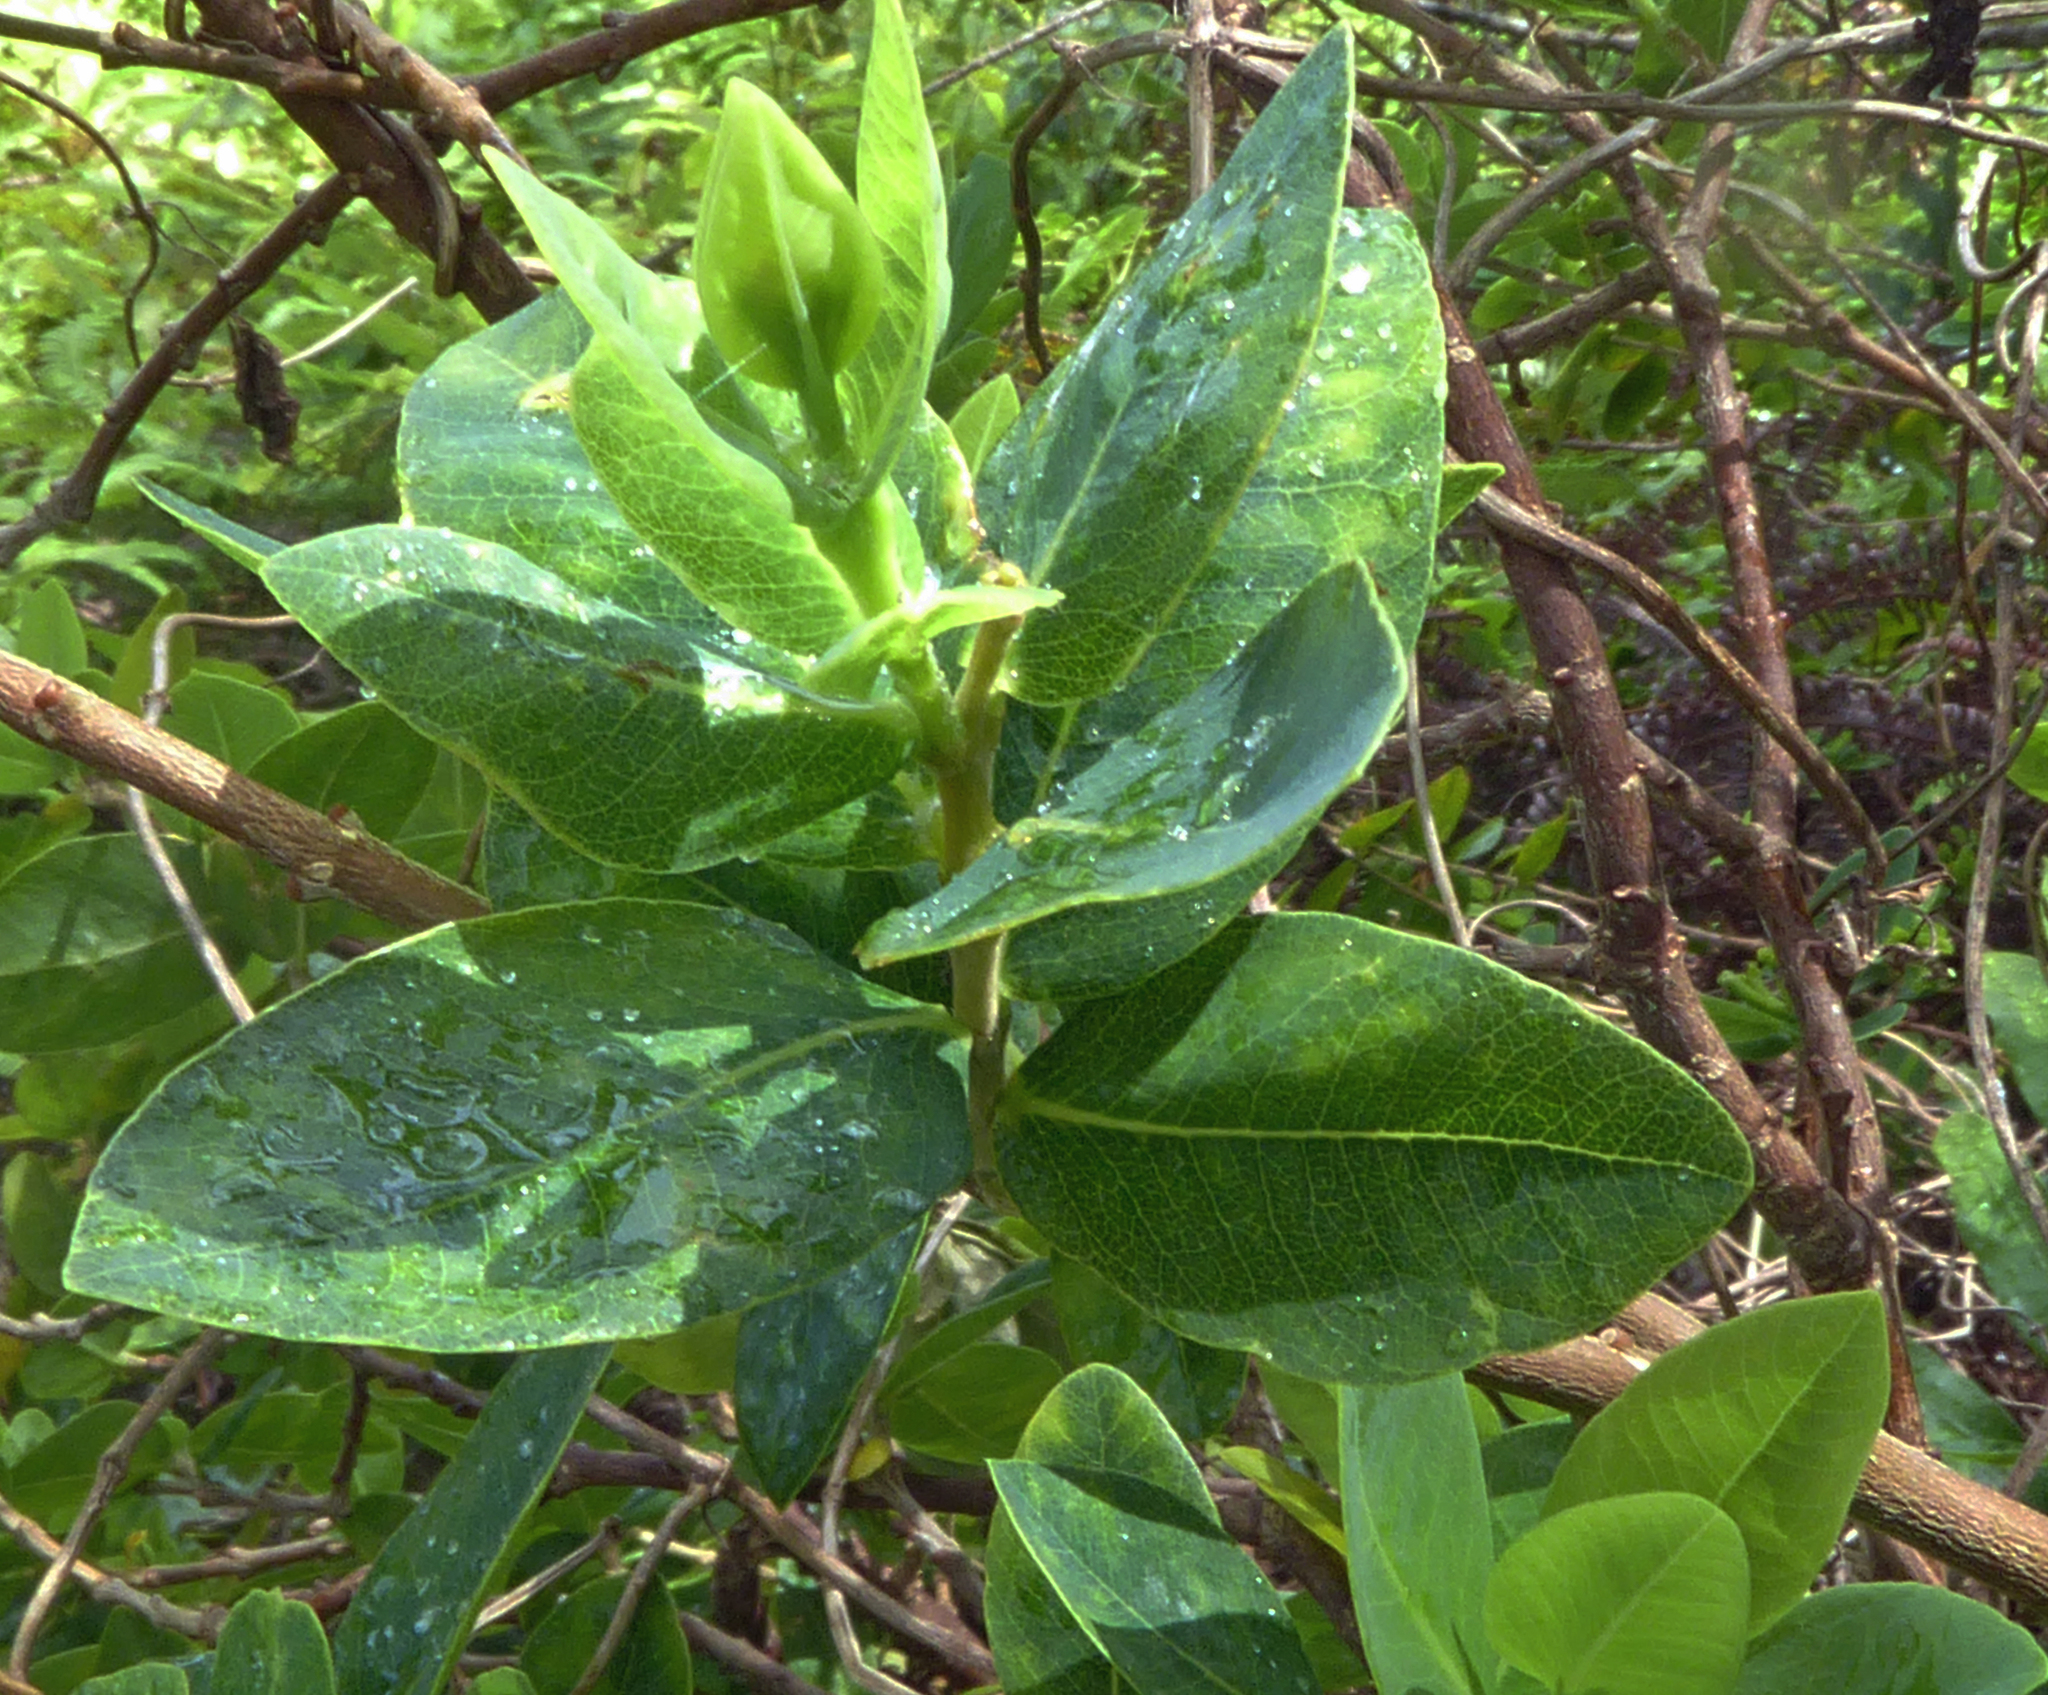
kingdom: Plantae
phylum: Tracheophyta
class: Magnoliopsida
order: Malvales
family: Thymelaeaceae
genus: Wikstroemia
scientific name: Wikstroemia indica
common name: Tiebush
